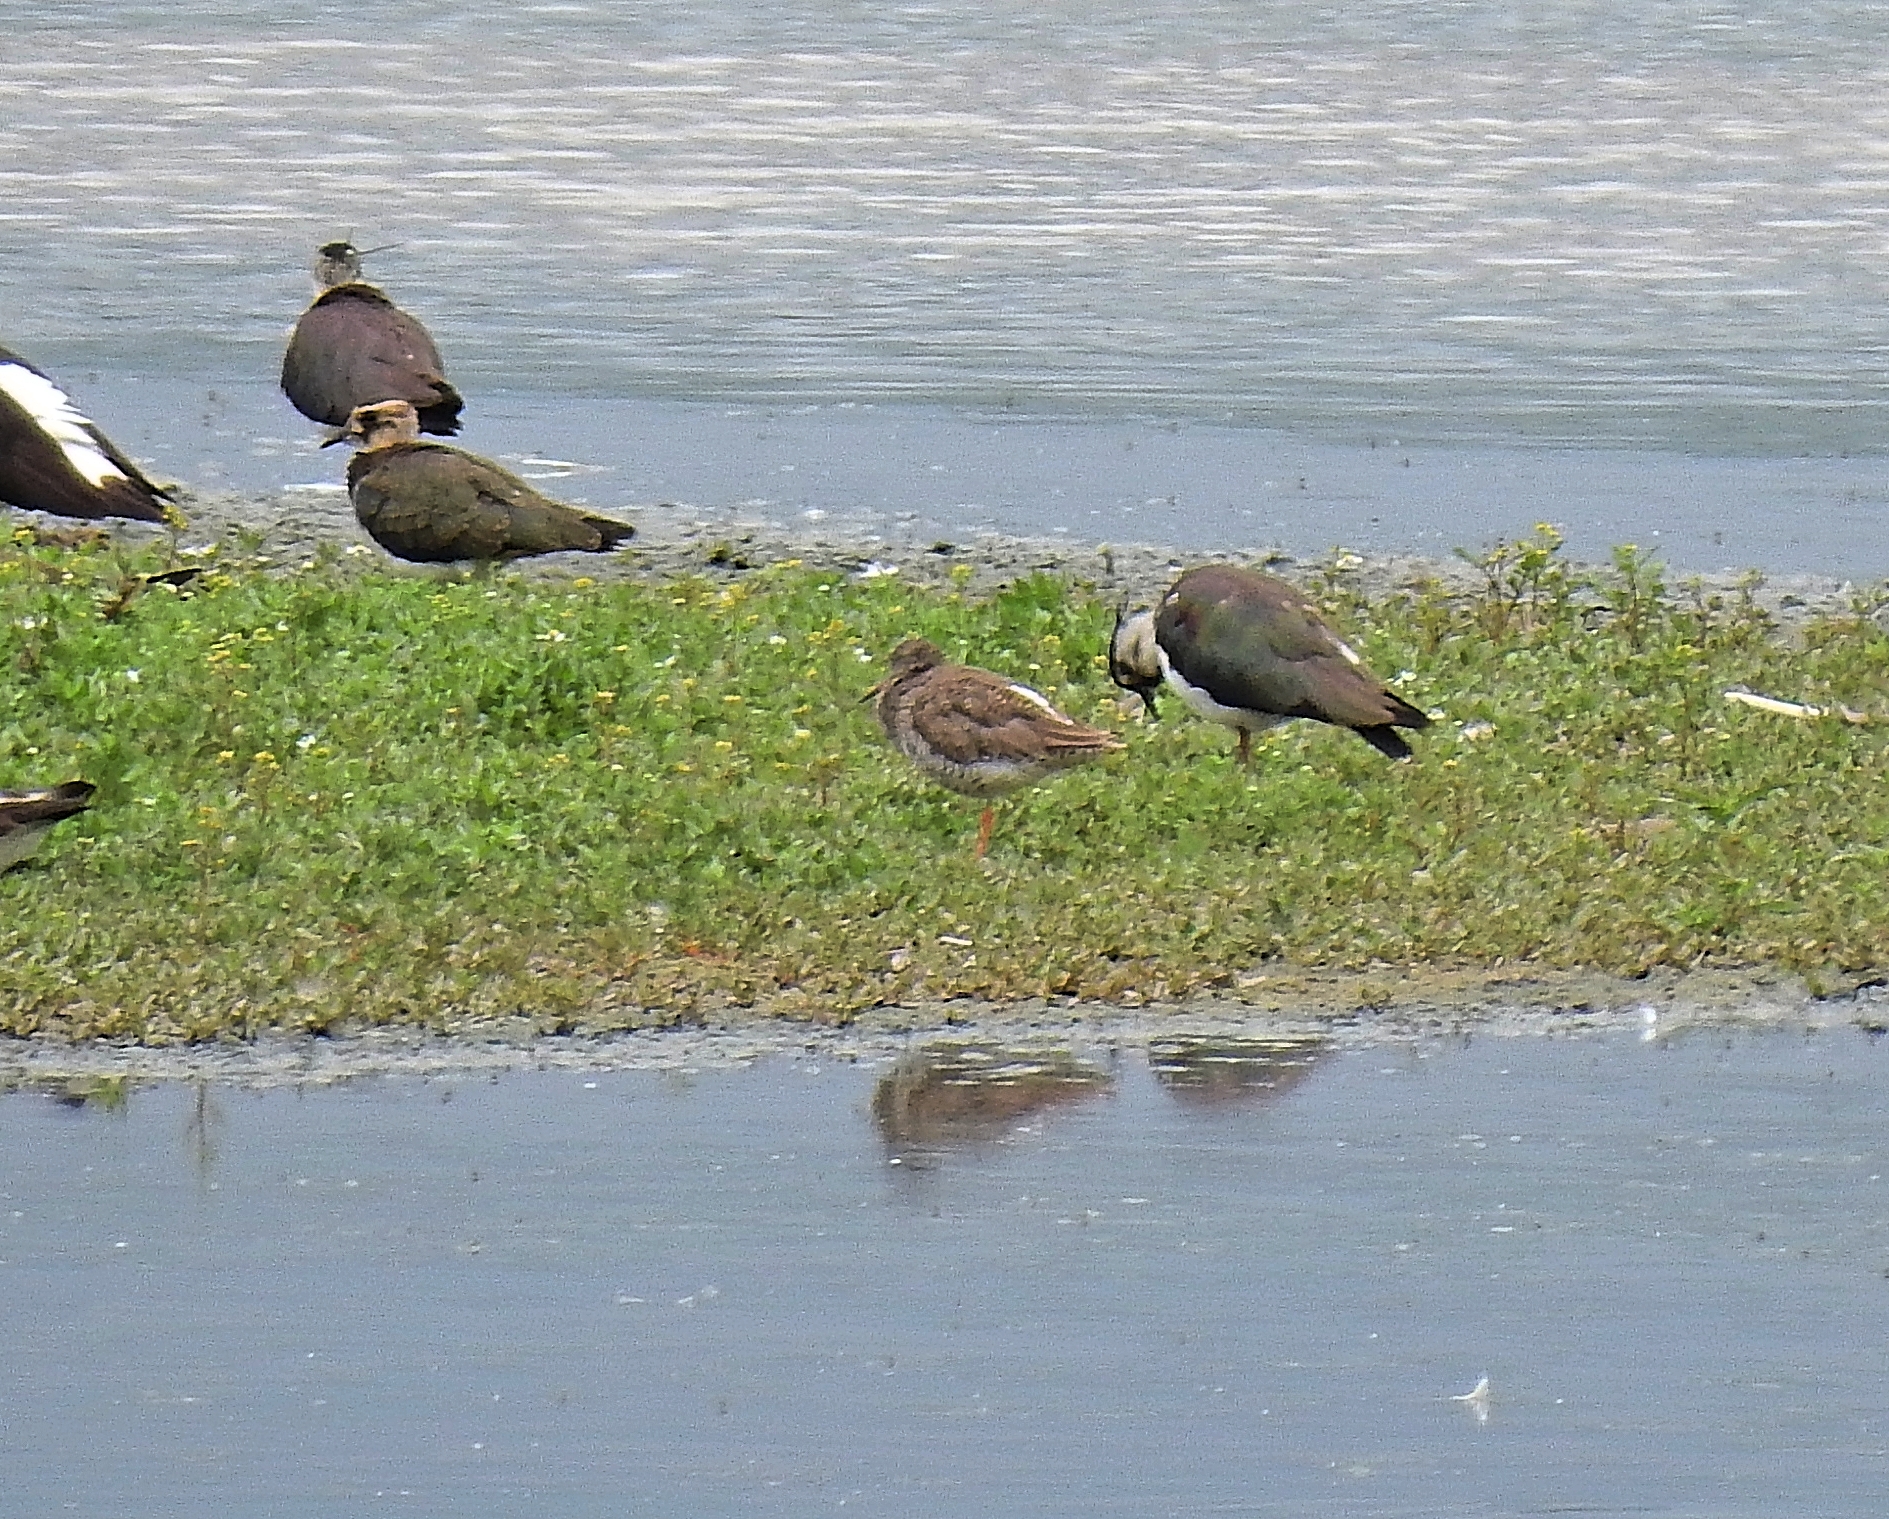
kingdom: Animalia
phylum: Chordata
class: Aves
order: Charadriiformes
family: Scolopacidae
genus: Tringa
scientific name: Tringa totanus
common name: Common redshank
